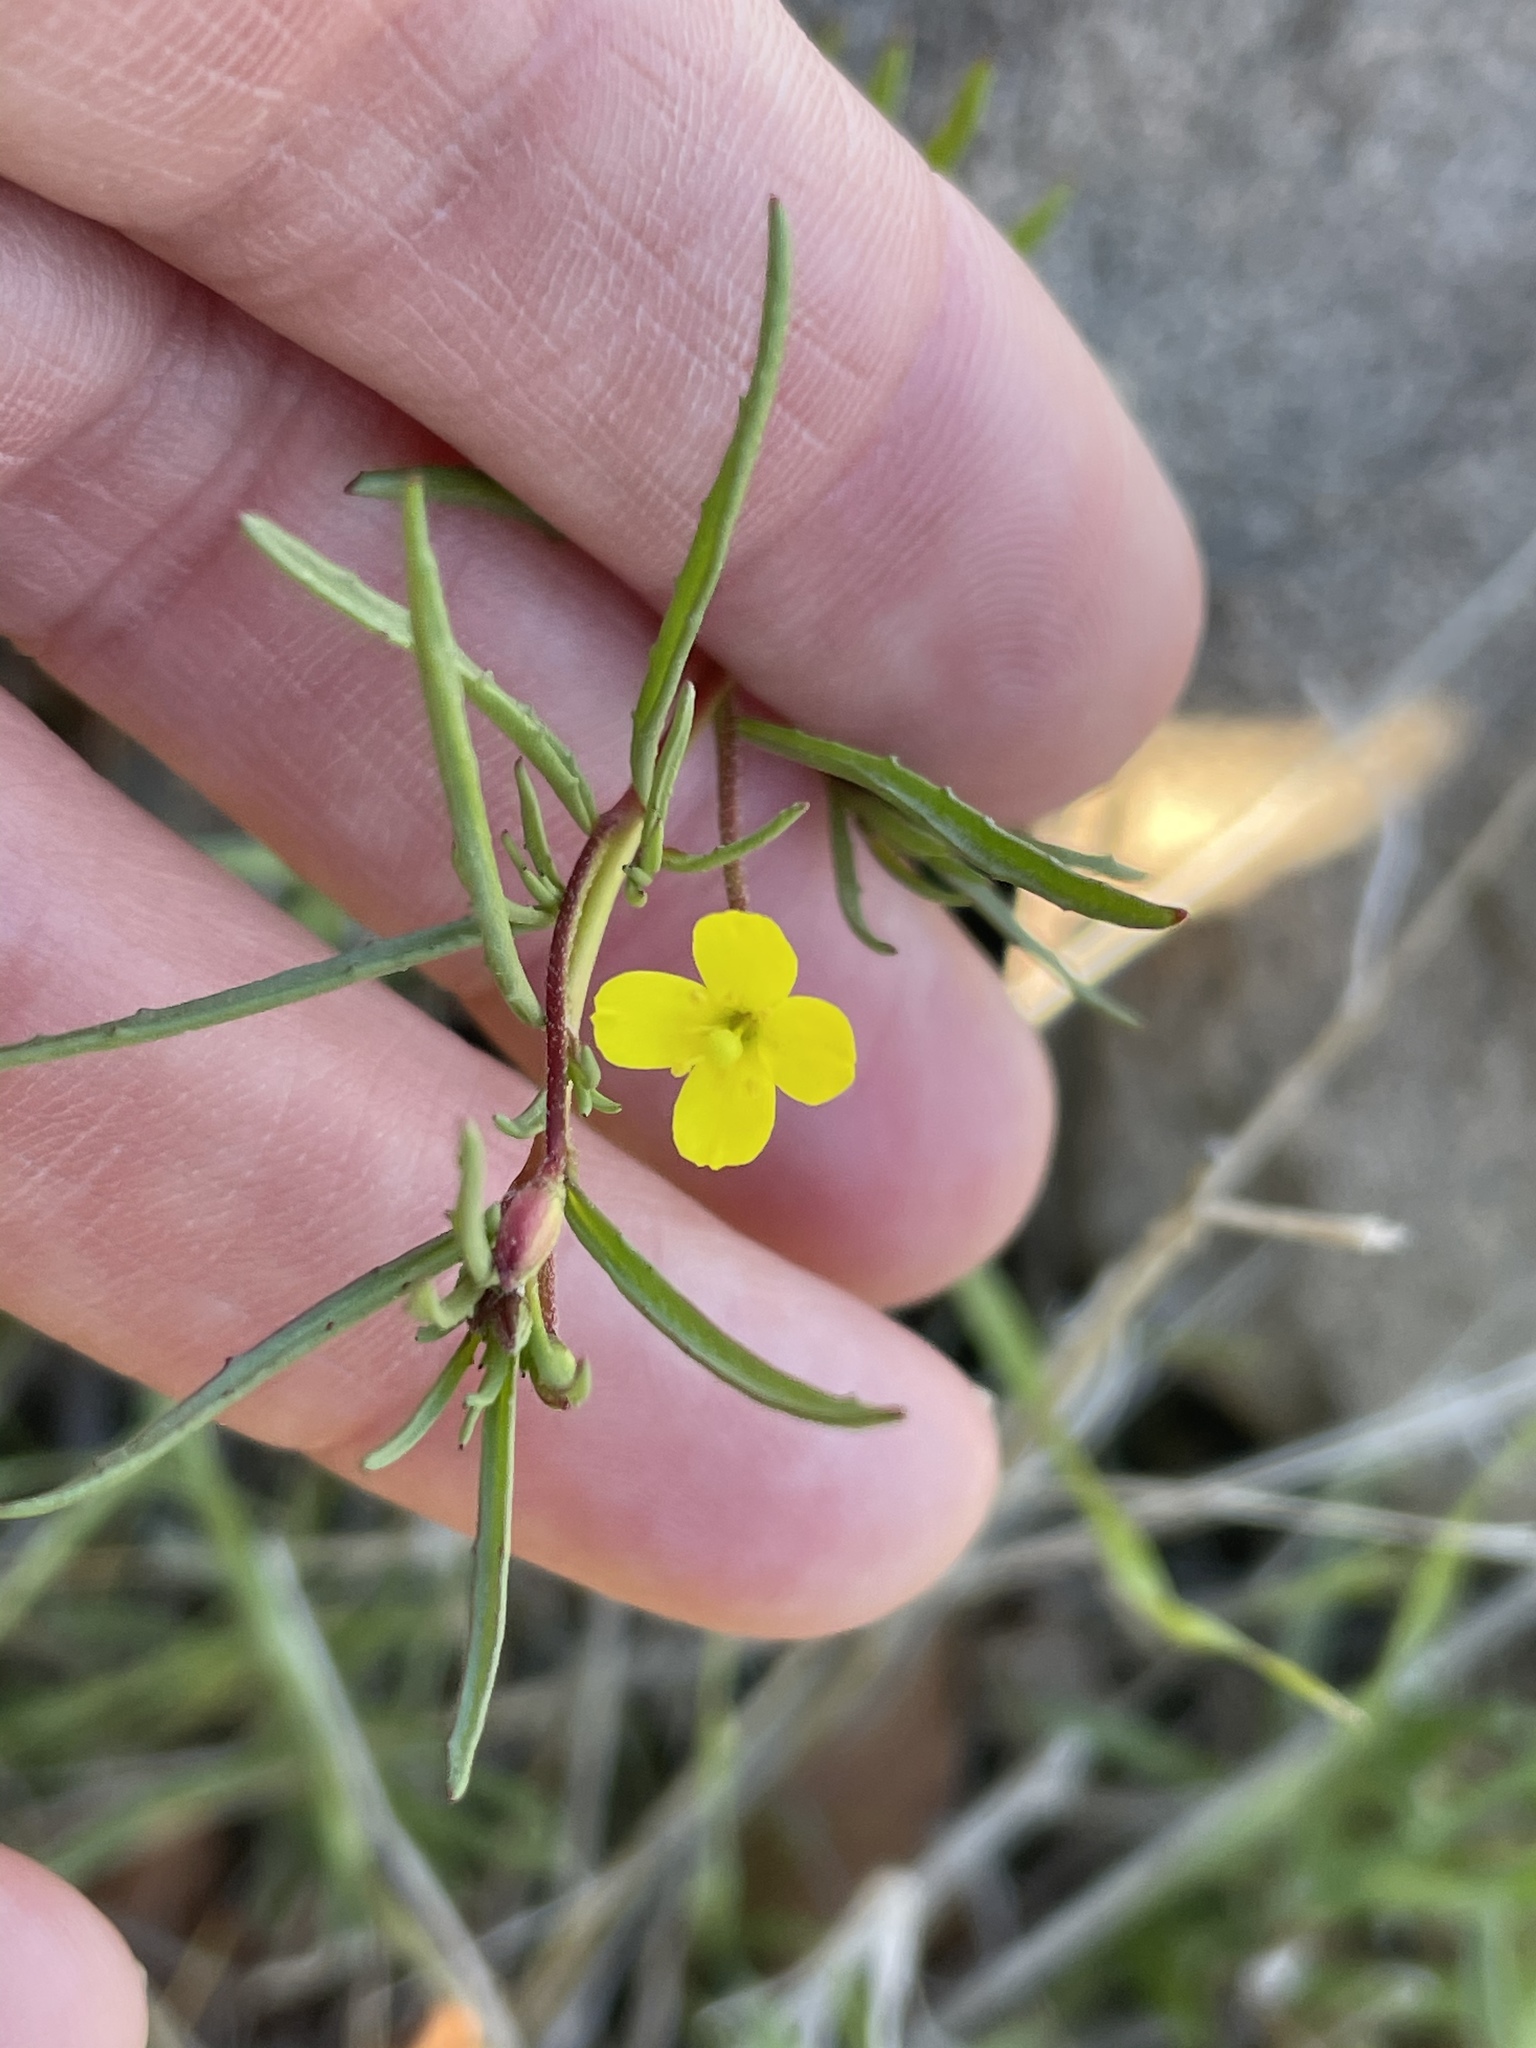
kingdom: Plantae
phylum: Tracheophyta
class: Magnoliopsida
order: Myrtales
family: Onagraceae
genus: Camissonia
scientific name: Camissonia strigulosa
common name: Contorted-primrose
